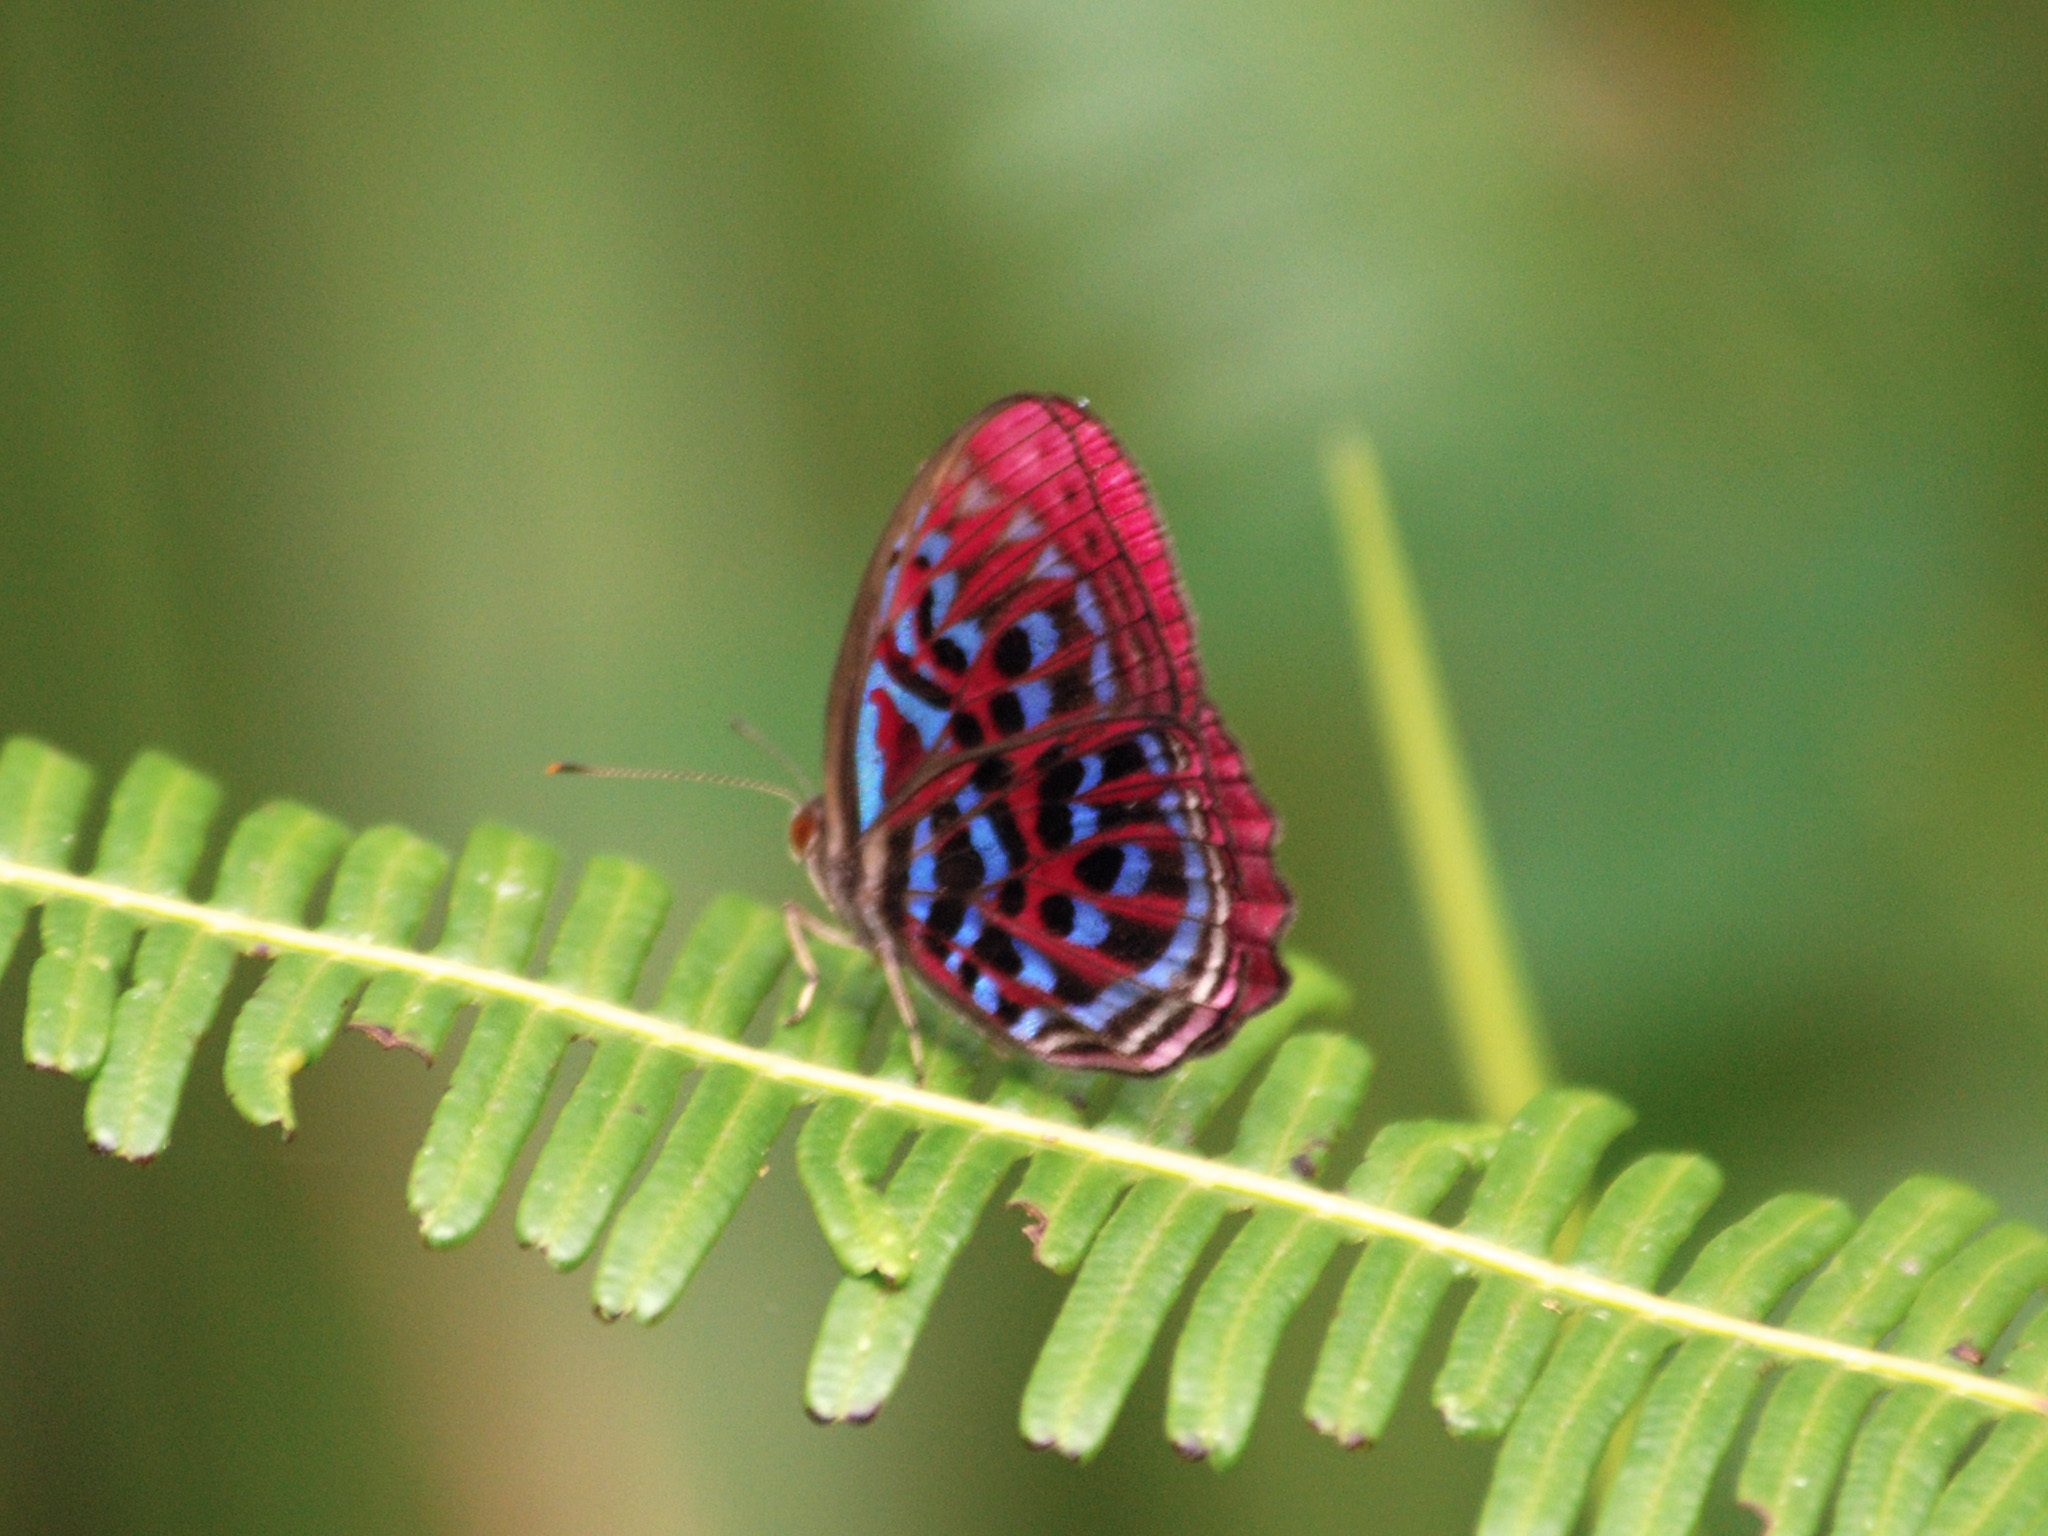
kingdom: Animalia
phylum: Arthropoda
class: Insecta
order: Lepidoptera
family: Riodinidae
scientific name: Riodinidae
